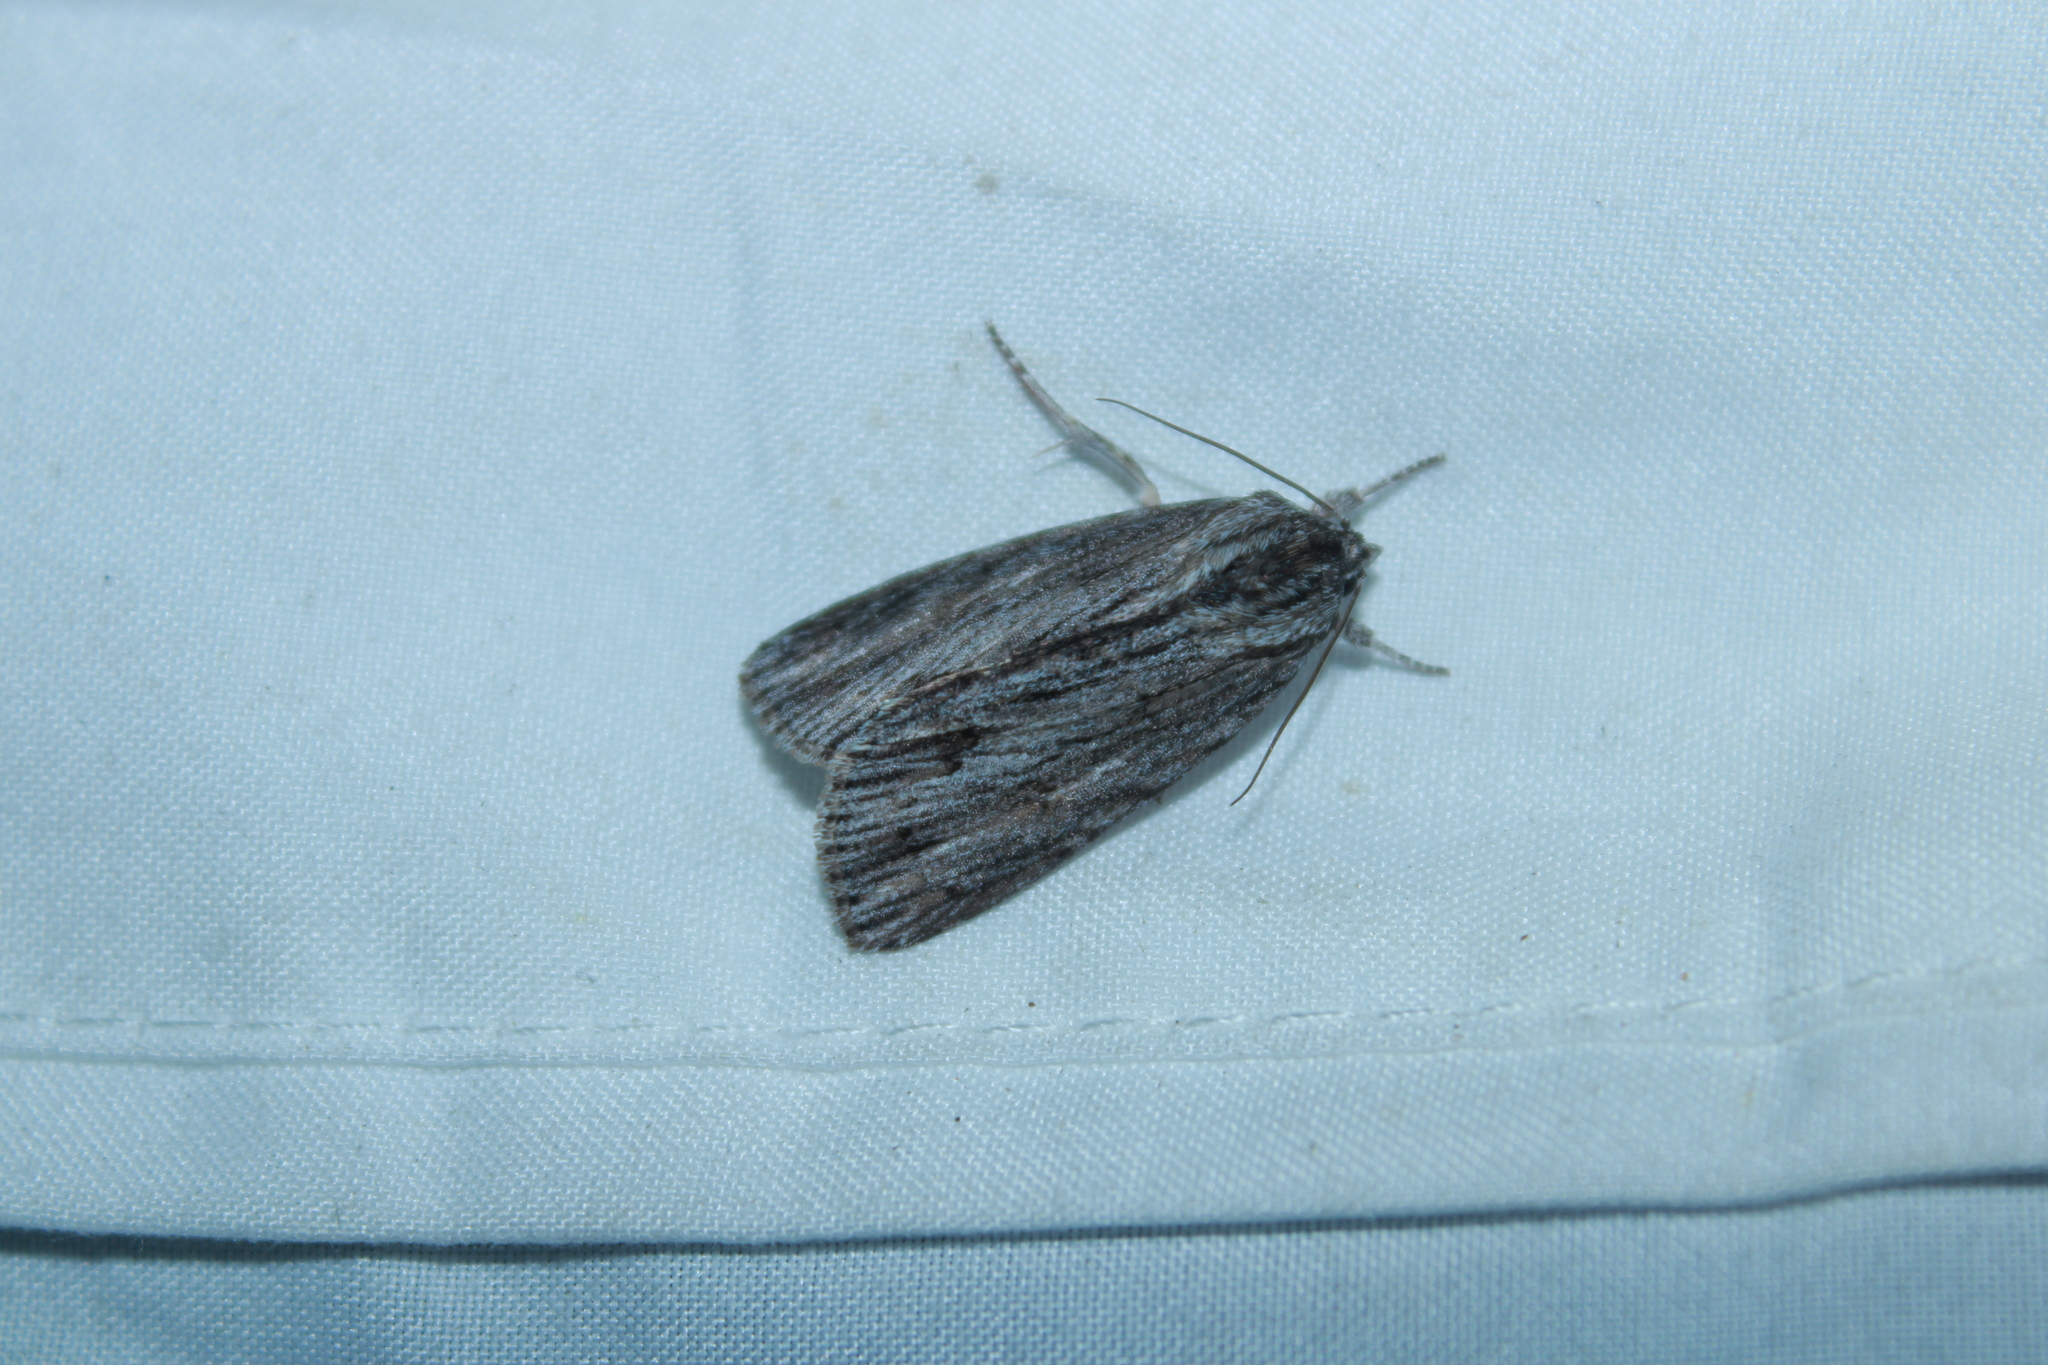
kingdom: Animalia
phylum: Arthropoda
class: Insecta
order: Lepidoptera
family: Noctuidae
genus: Acronicta
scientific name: Acronicta lithospila
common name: Streaked dagger
